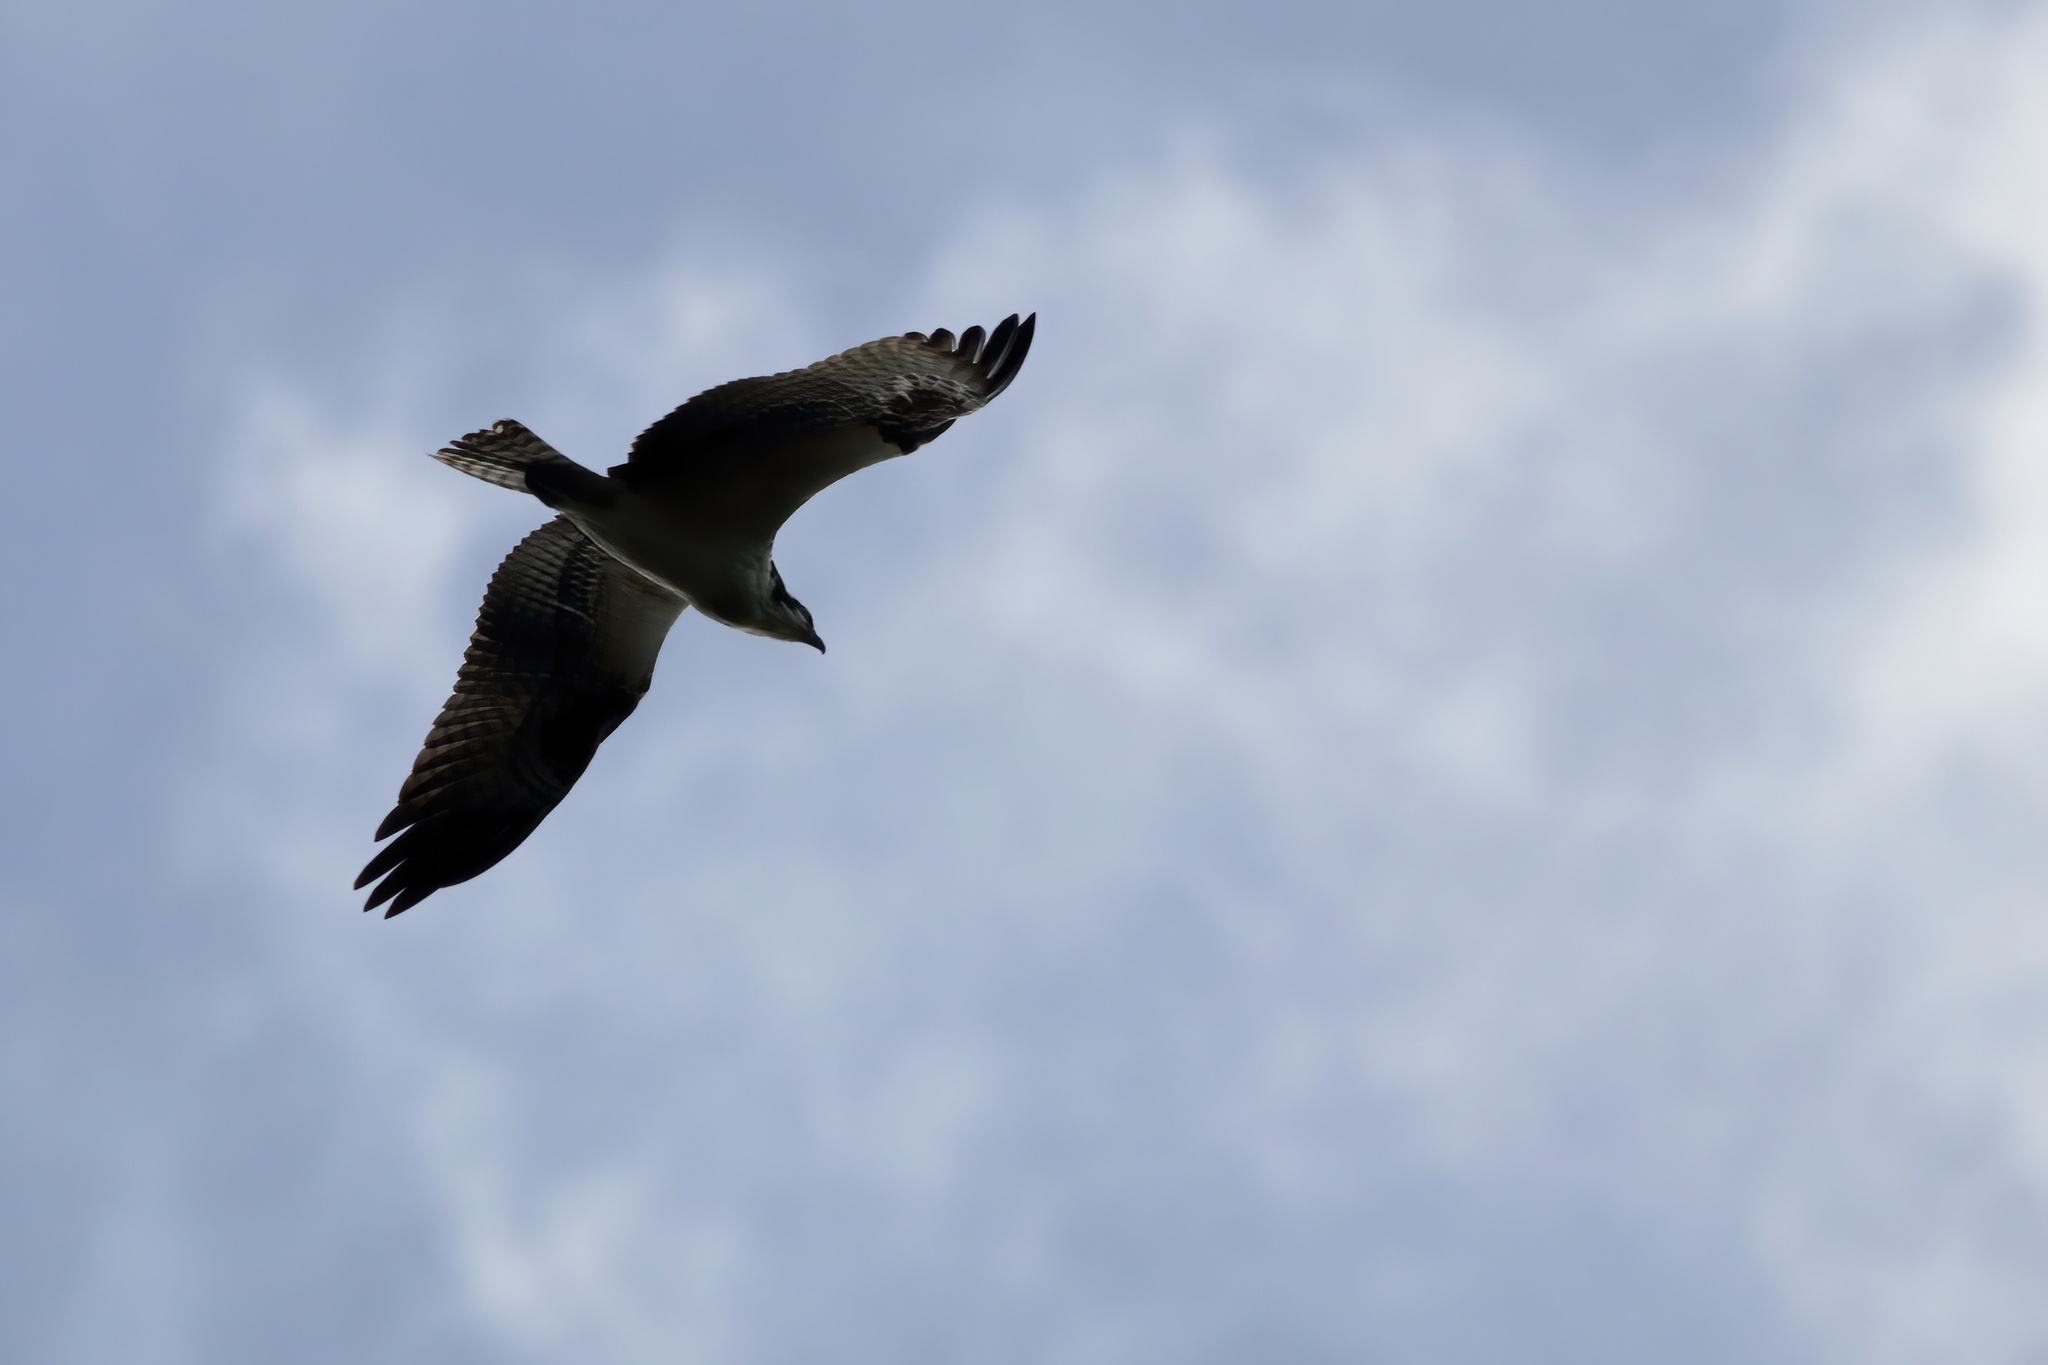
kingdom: Animalia
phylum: Chordata
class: Aves
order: Accipitriformes
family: Pandionidae
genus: Pandion
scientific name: Pandion haliaetus
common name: Osprey
